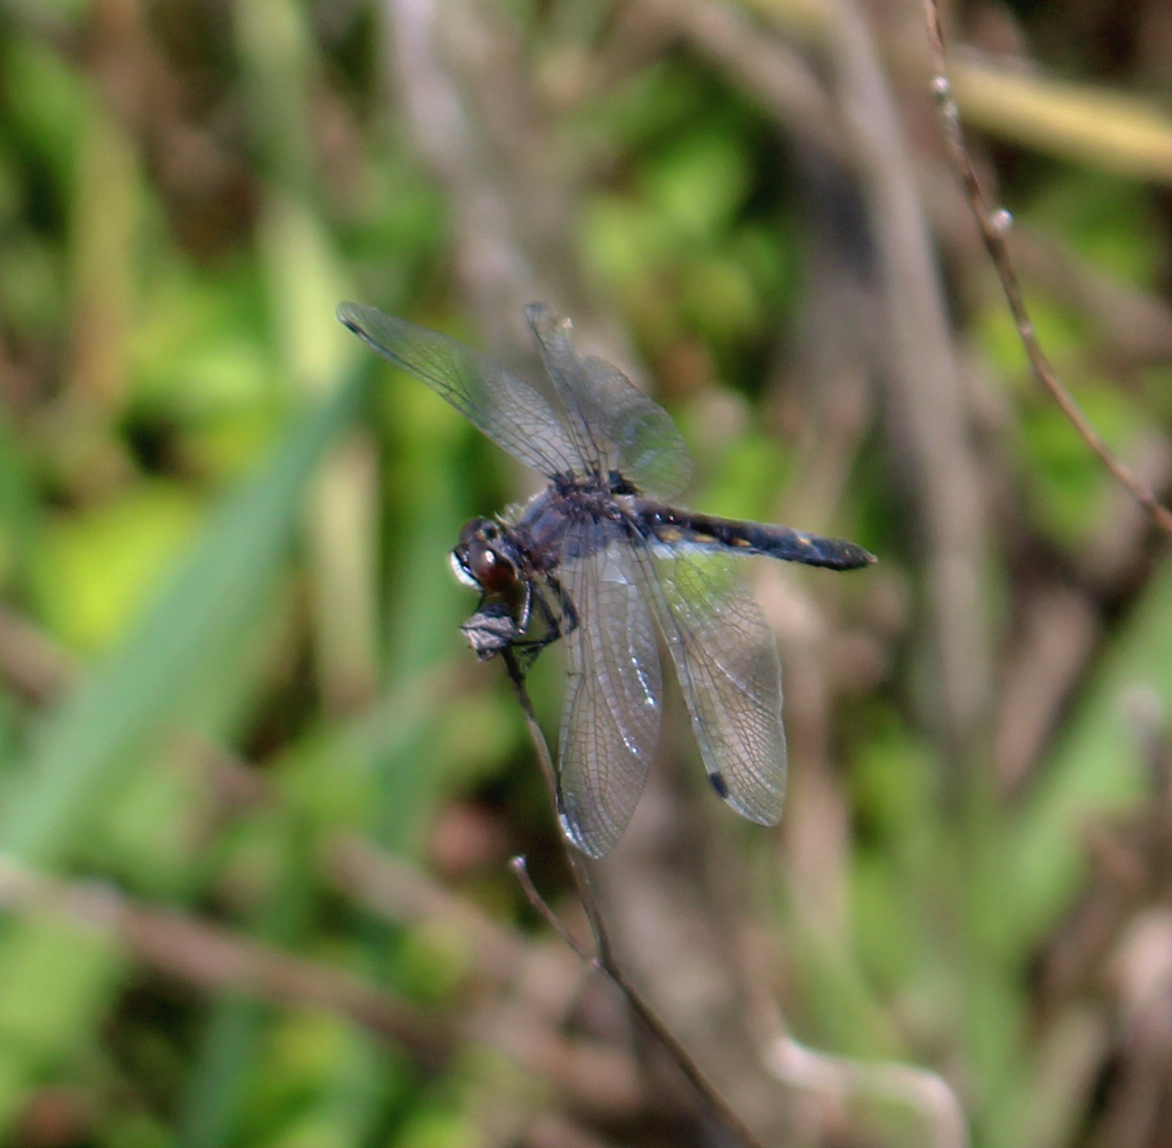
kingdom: Animalia
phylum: Arthropoda
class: Insecta
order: Odonata
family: Libellulidae
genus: Leucorrhinia
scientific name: Leucorrhinia intacta
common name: Dot-tailed whiteface
